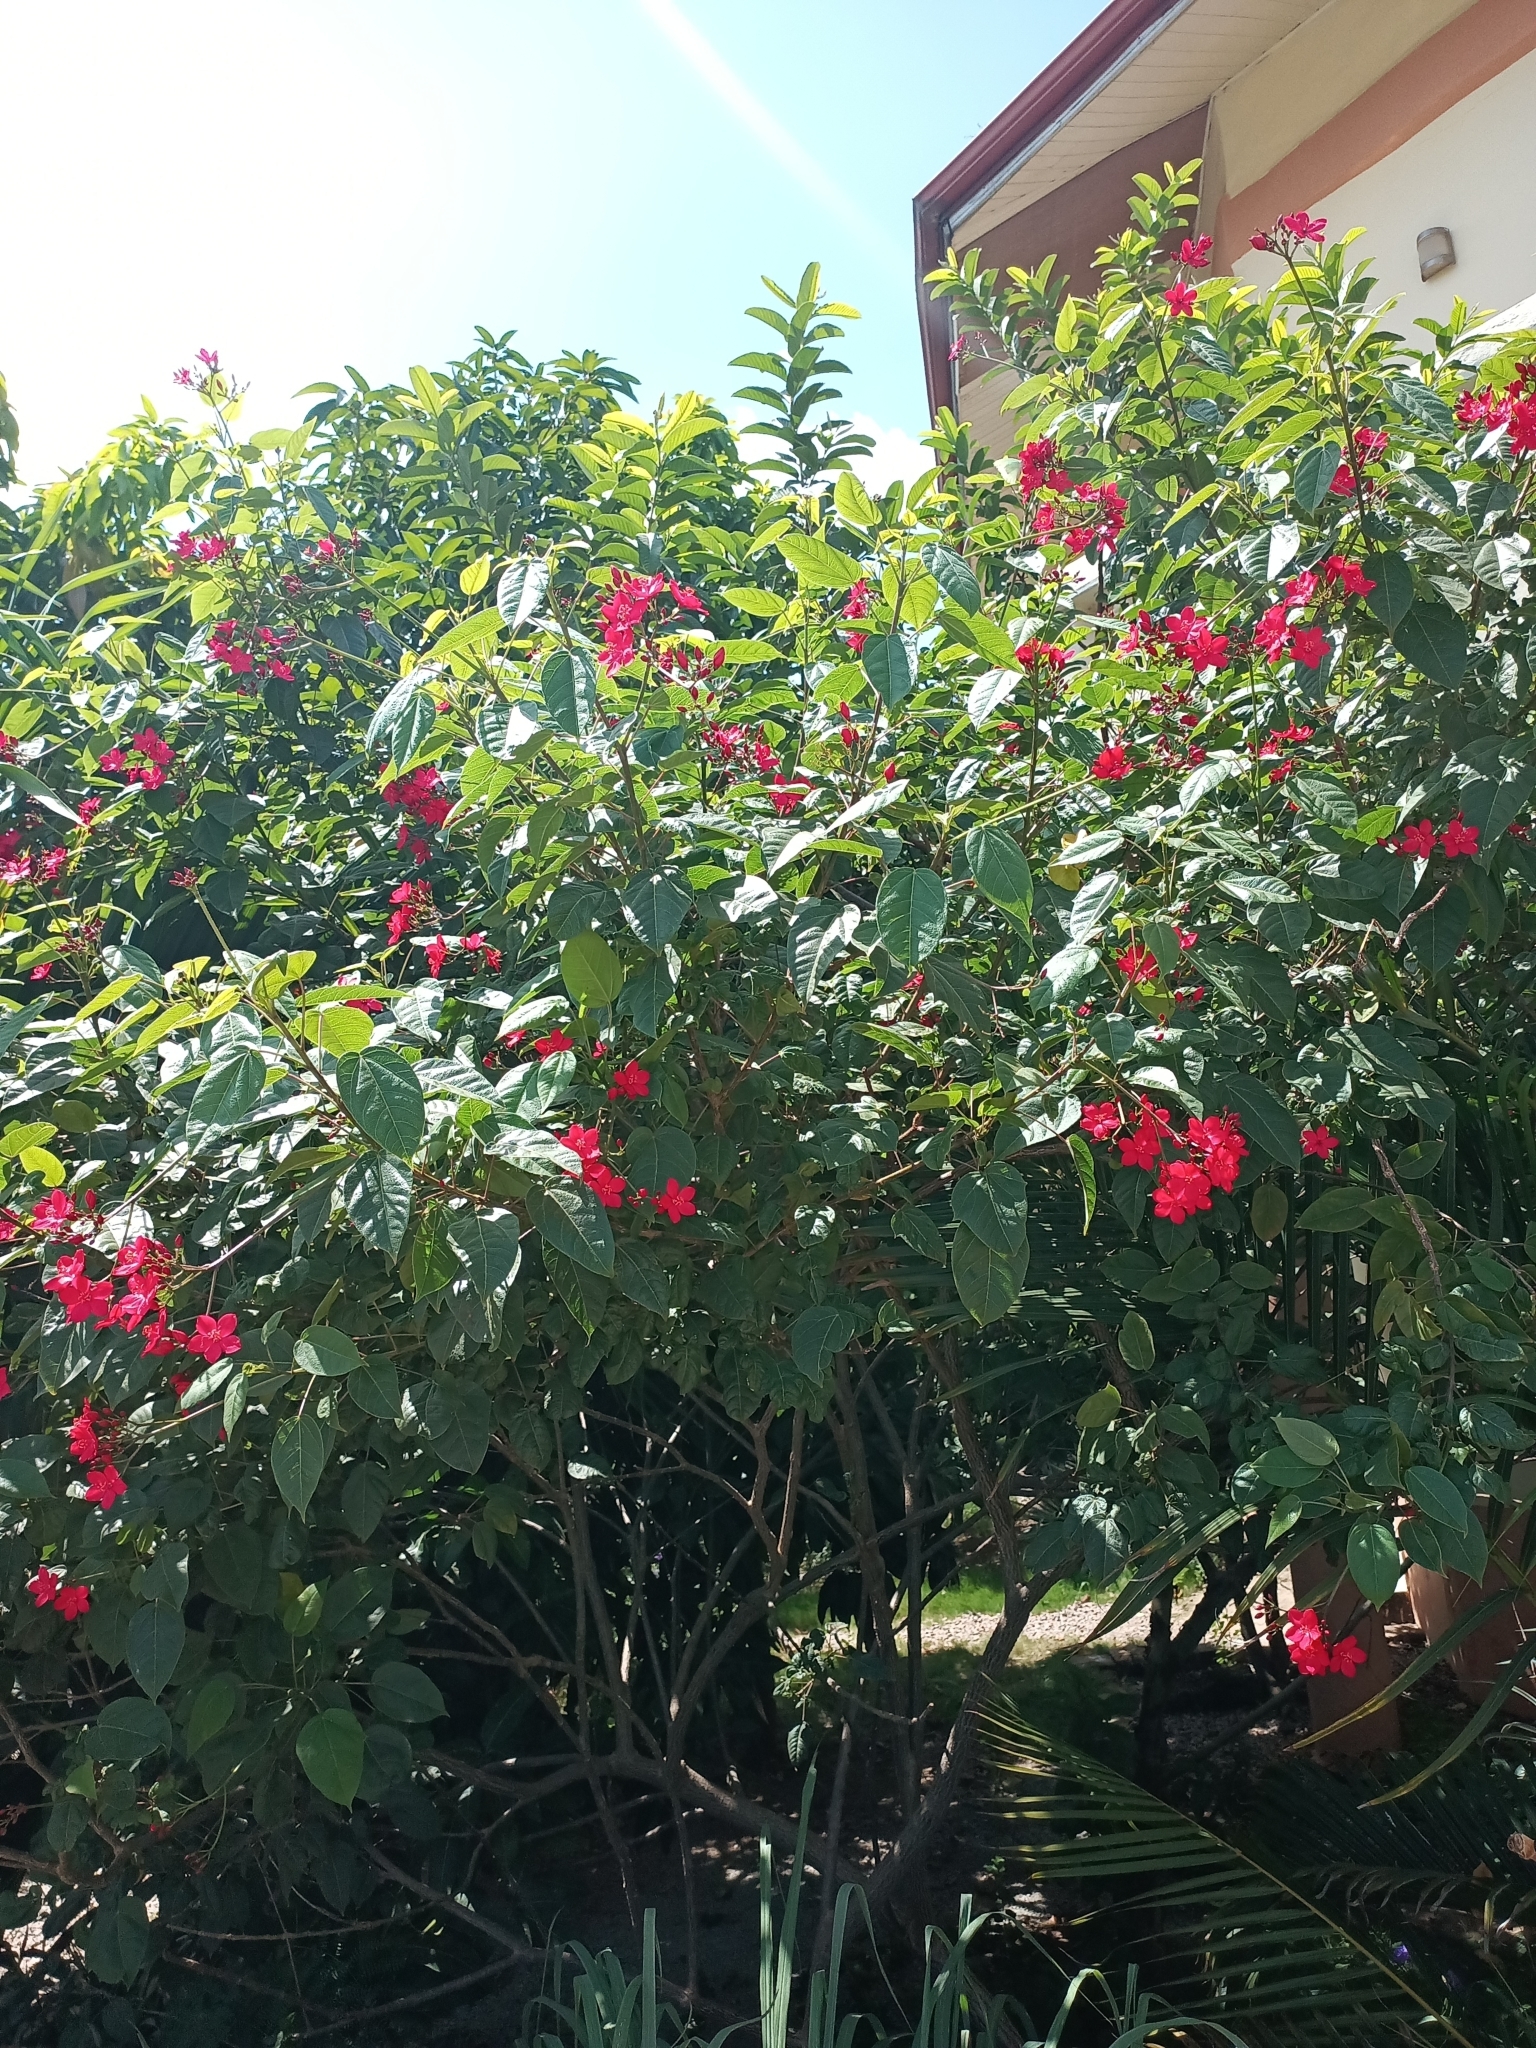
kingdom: Plantae
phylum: Tracheophyta
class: Magnoliopsida
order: Malpighiales
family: Euphorbiaceae
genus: Jatropha
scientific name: Jatropha integerrima
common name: Peregrina
